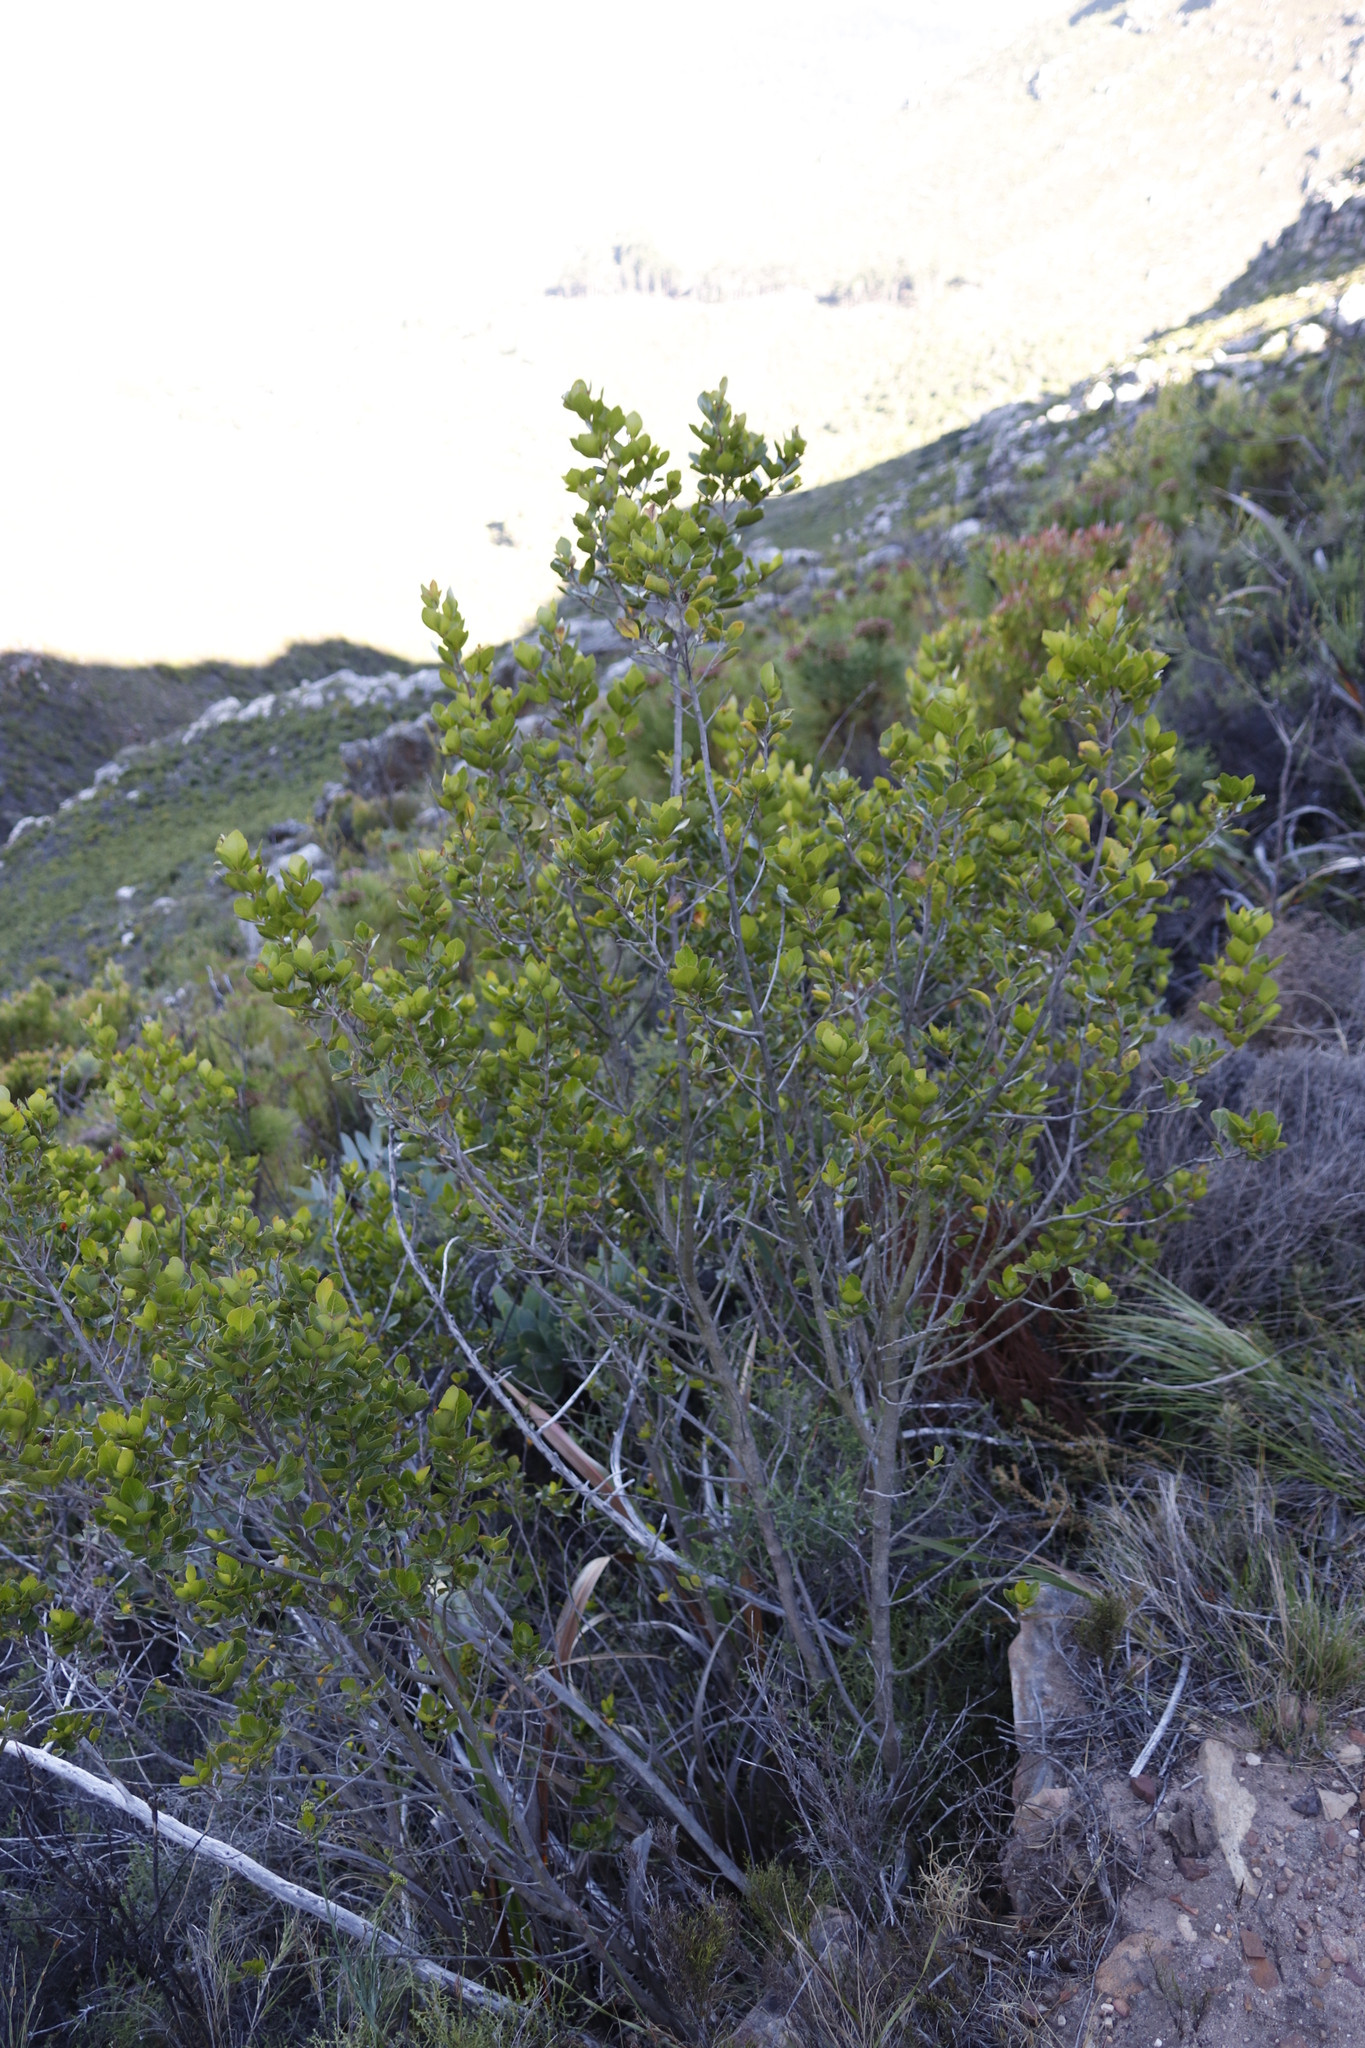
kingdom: Plantae
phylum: Tracheophyta
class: Magnoliopsida
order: Sapindales
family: Anacardiaceae
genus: Searsia
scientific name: Searsia lucida
